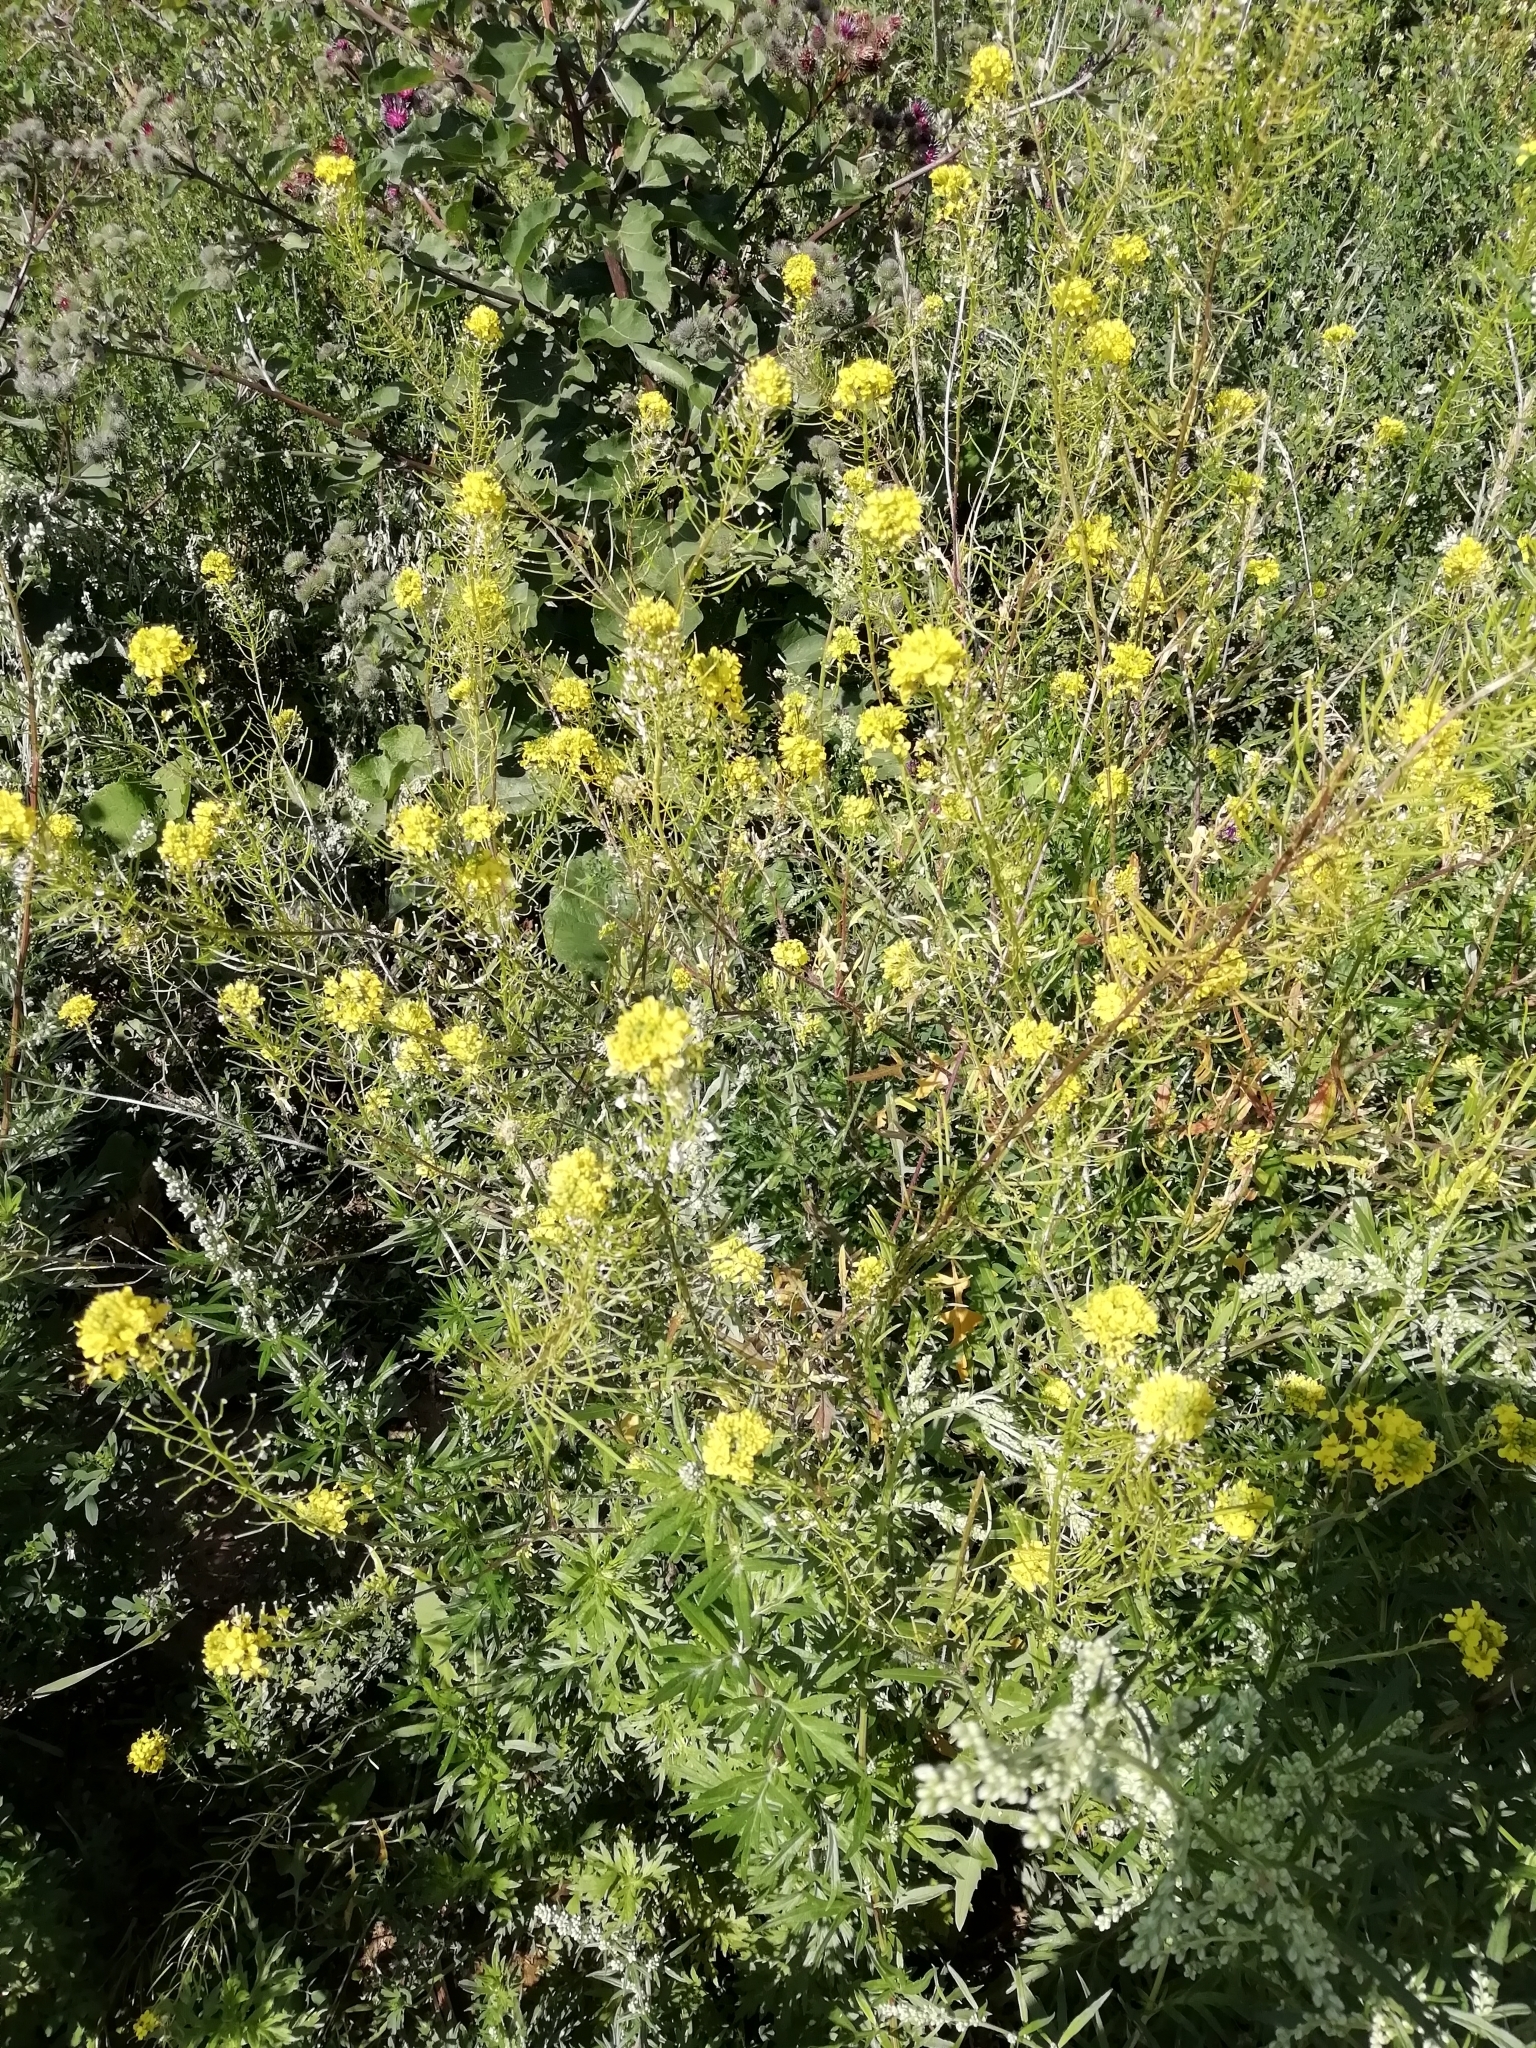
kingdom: Plantae
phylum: Tracheophyta
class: Magnoliopsida
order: Brassicales
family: Brassicaceae
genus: Sisymbrium
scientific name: Sisymbrium loeselii
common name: False london-rocket
